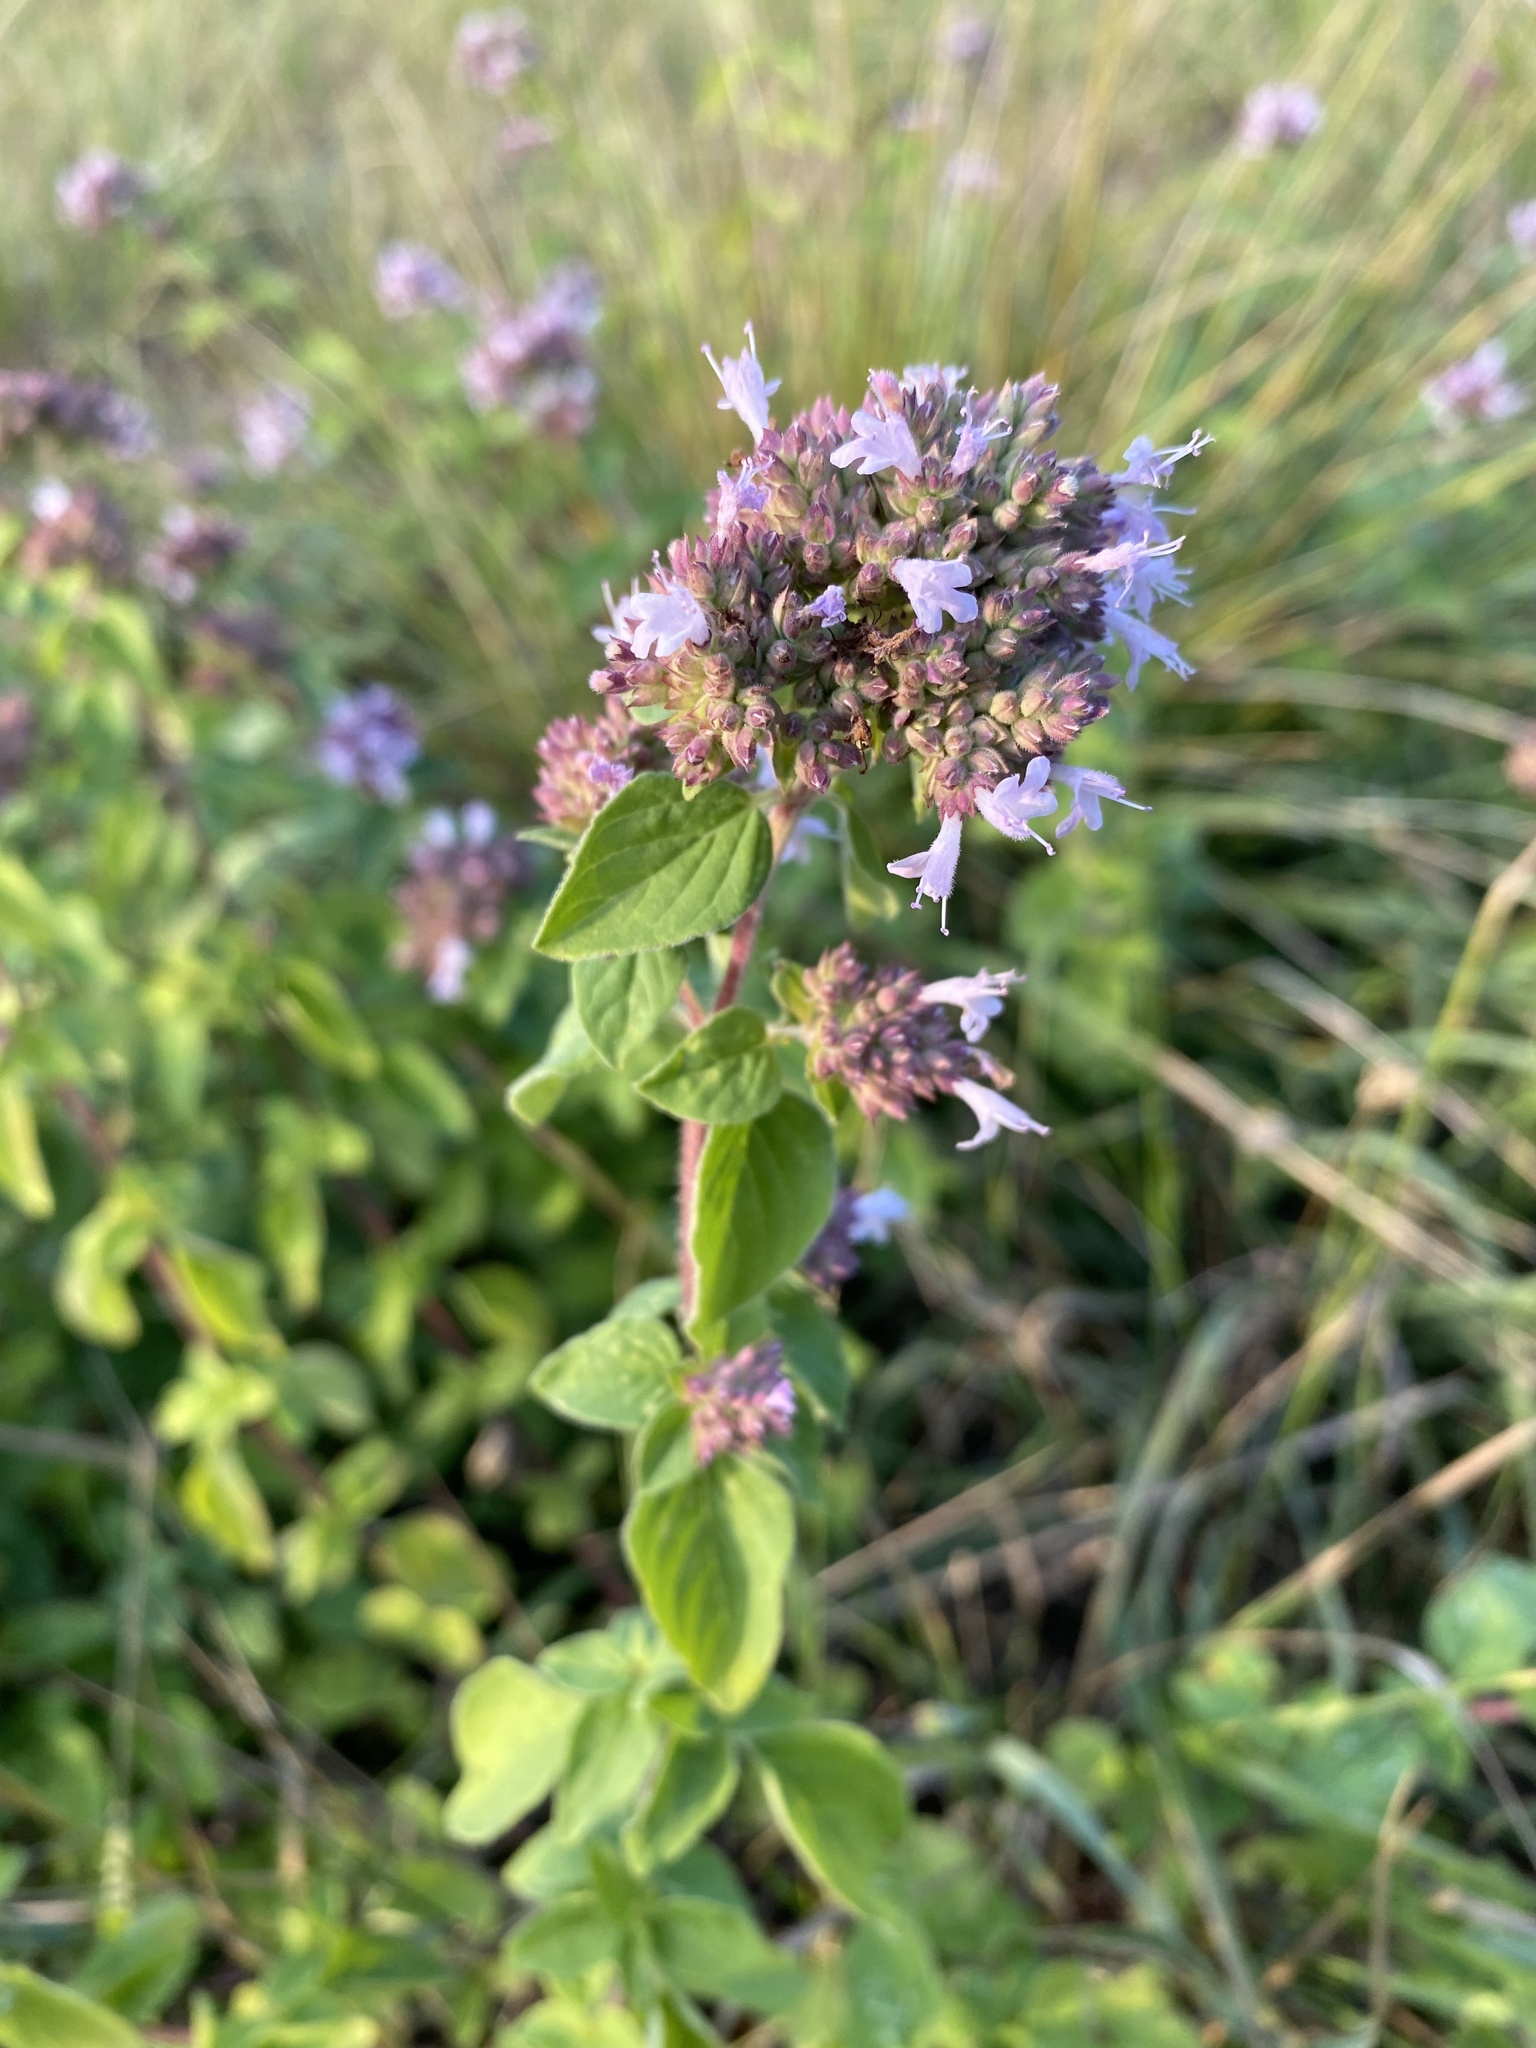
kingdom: Plantae
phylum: Tracheophyta
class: Magnoliopsida
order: Lamiales
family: Lamiaceae
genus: Origanum
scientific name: Origanum vulgare
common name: Wild marjoram
